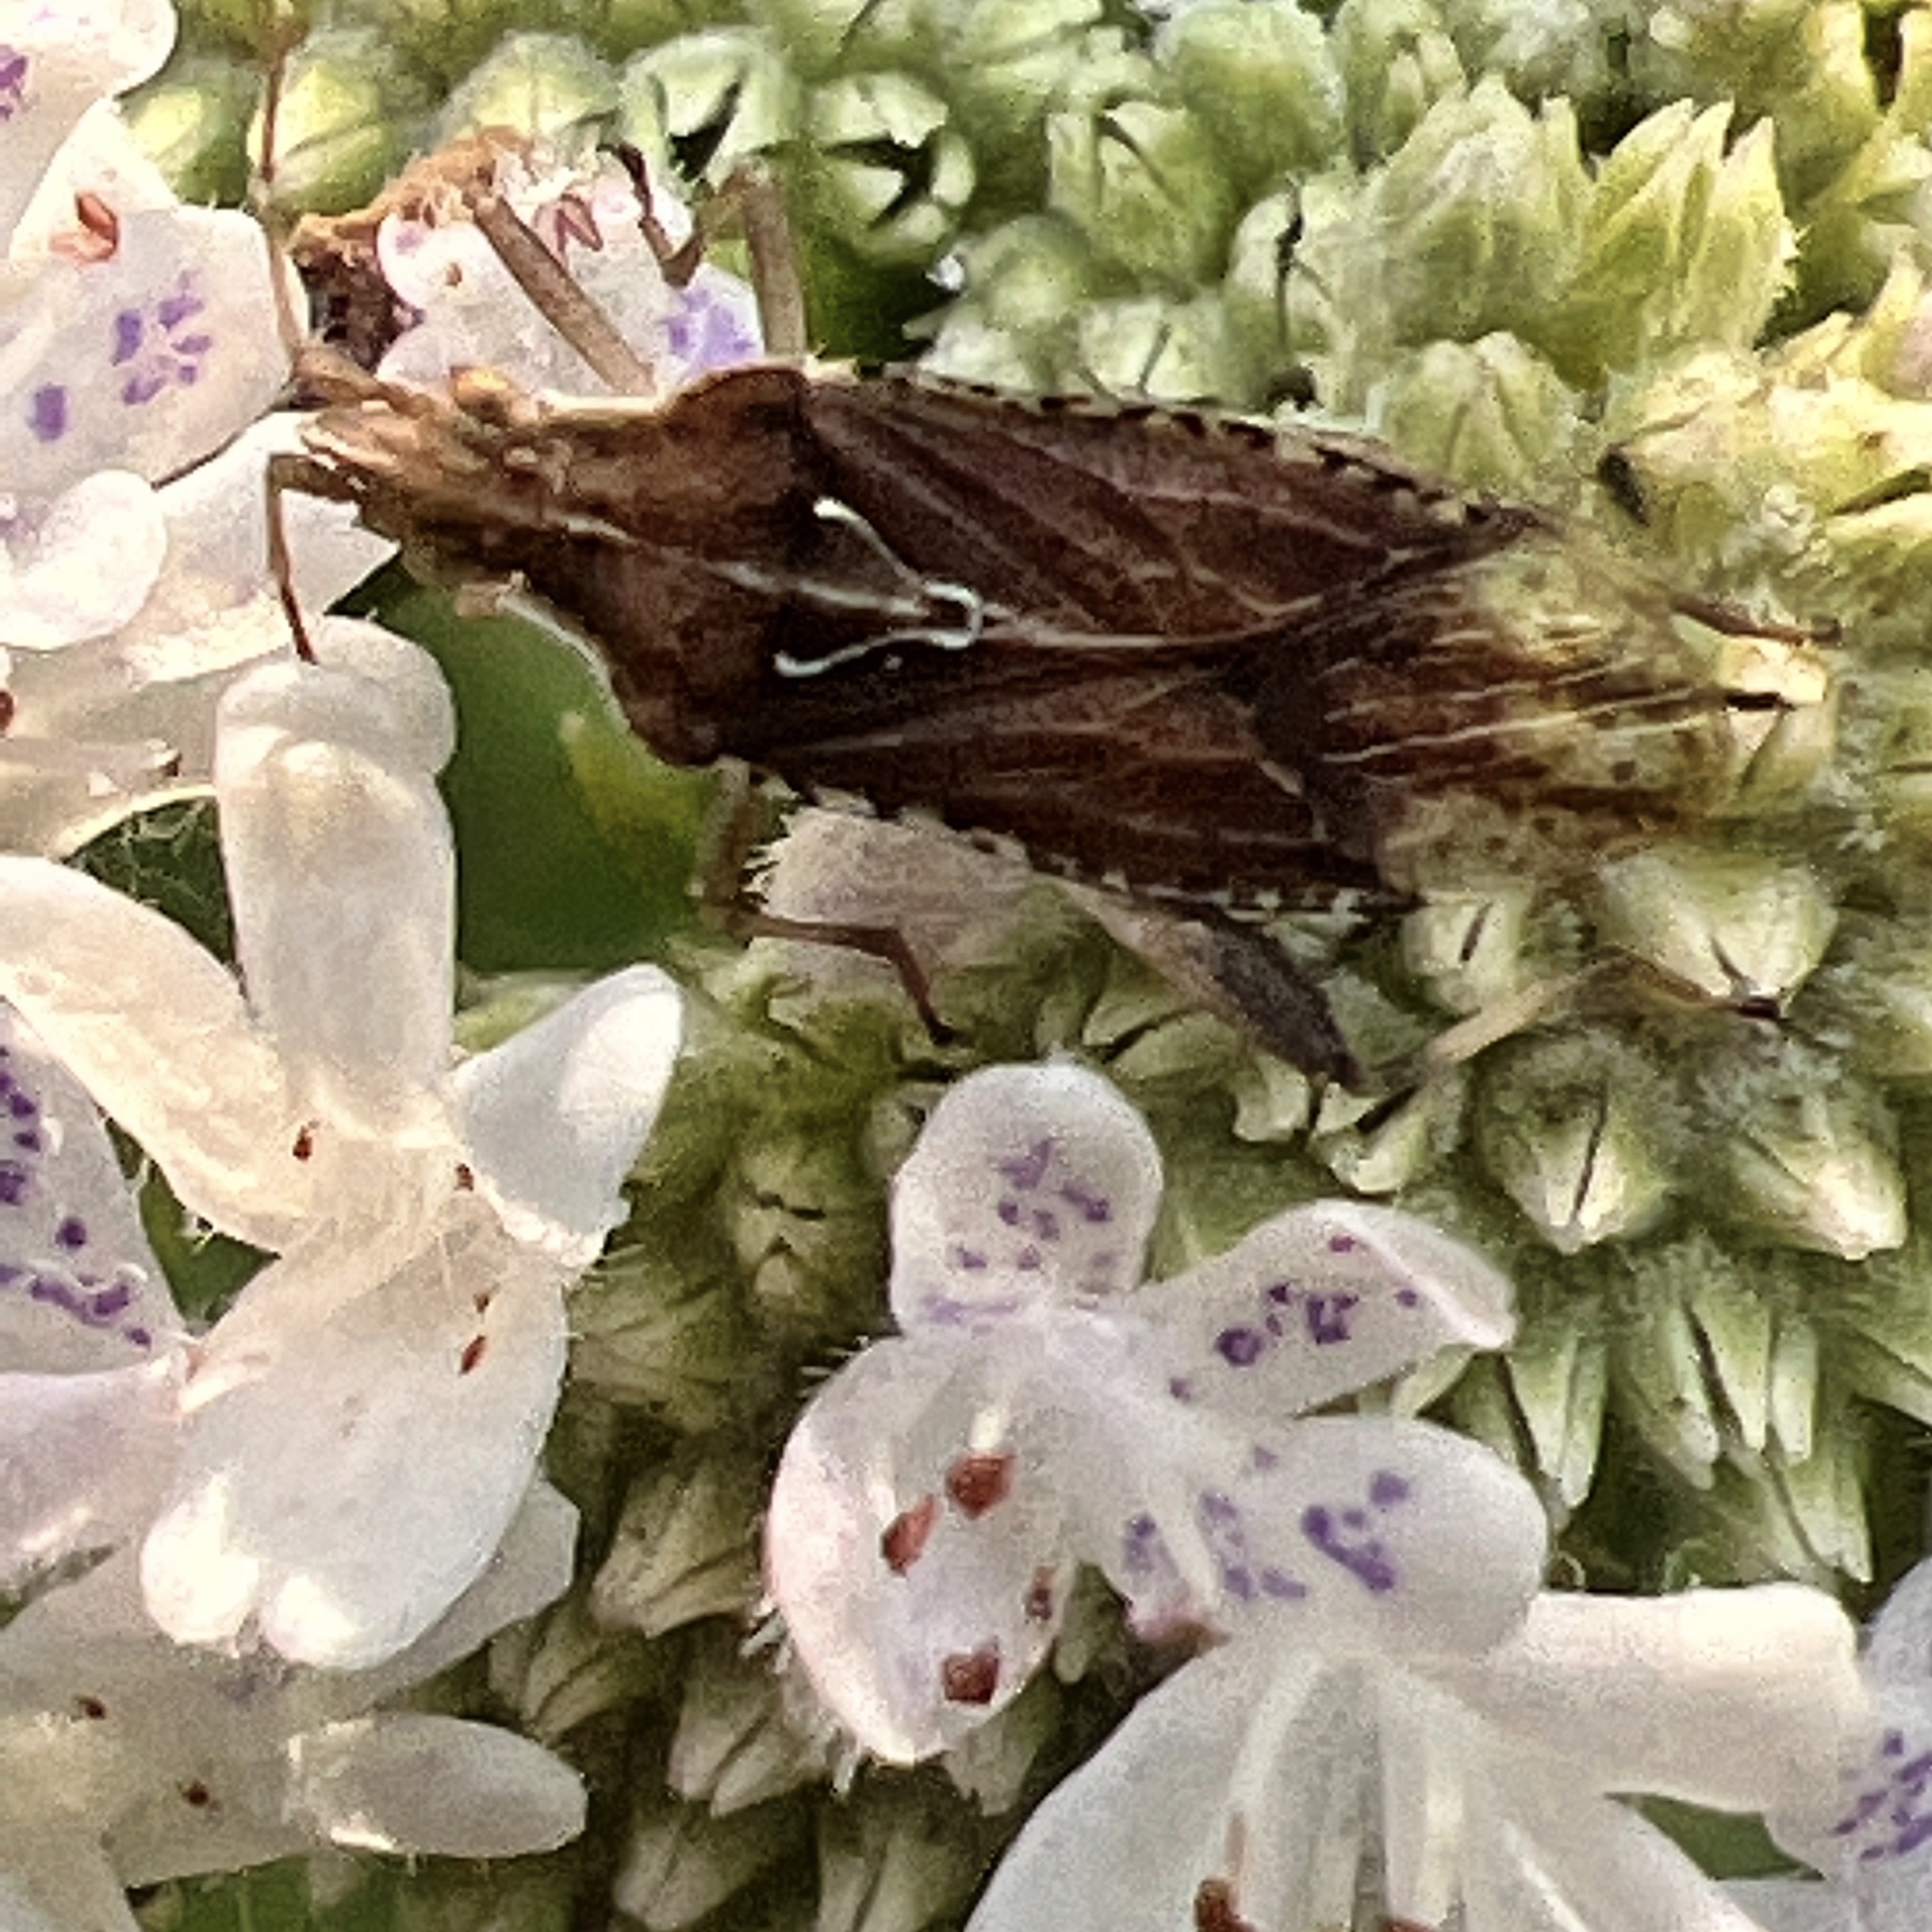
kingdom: Animalia
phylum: Arthropoda
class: Insecta
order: Hemiptera
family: Rhopalidae
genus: Harmostes
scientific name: Harmostes fraterculus
